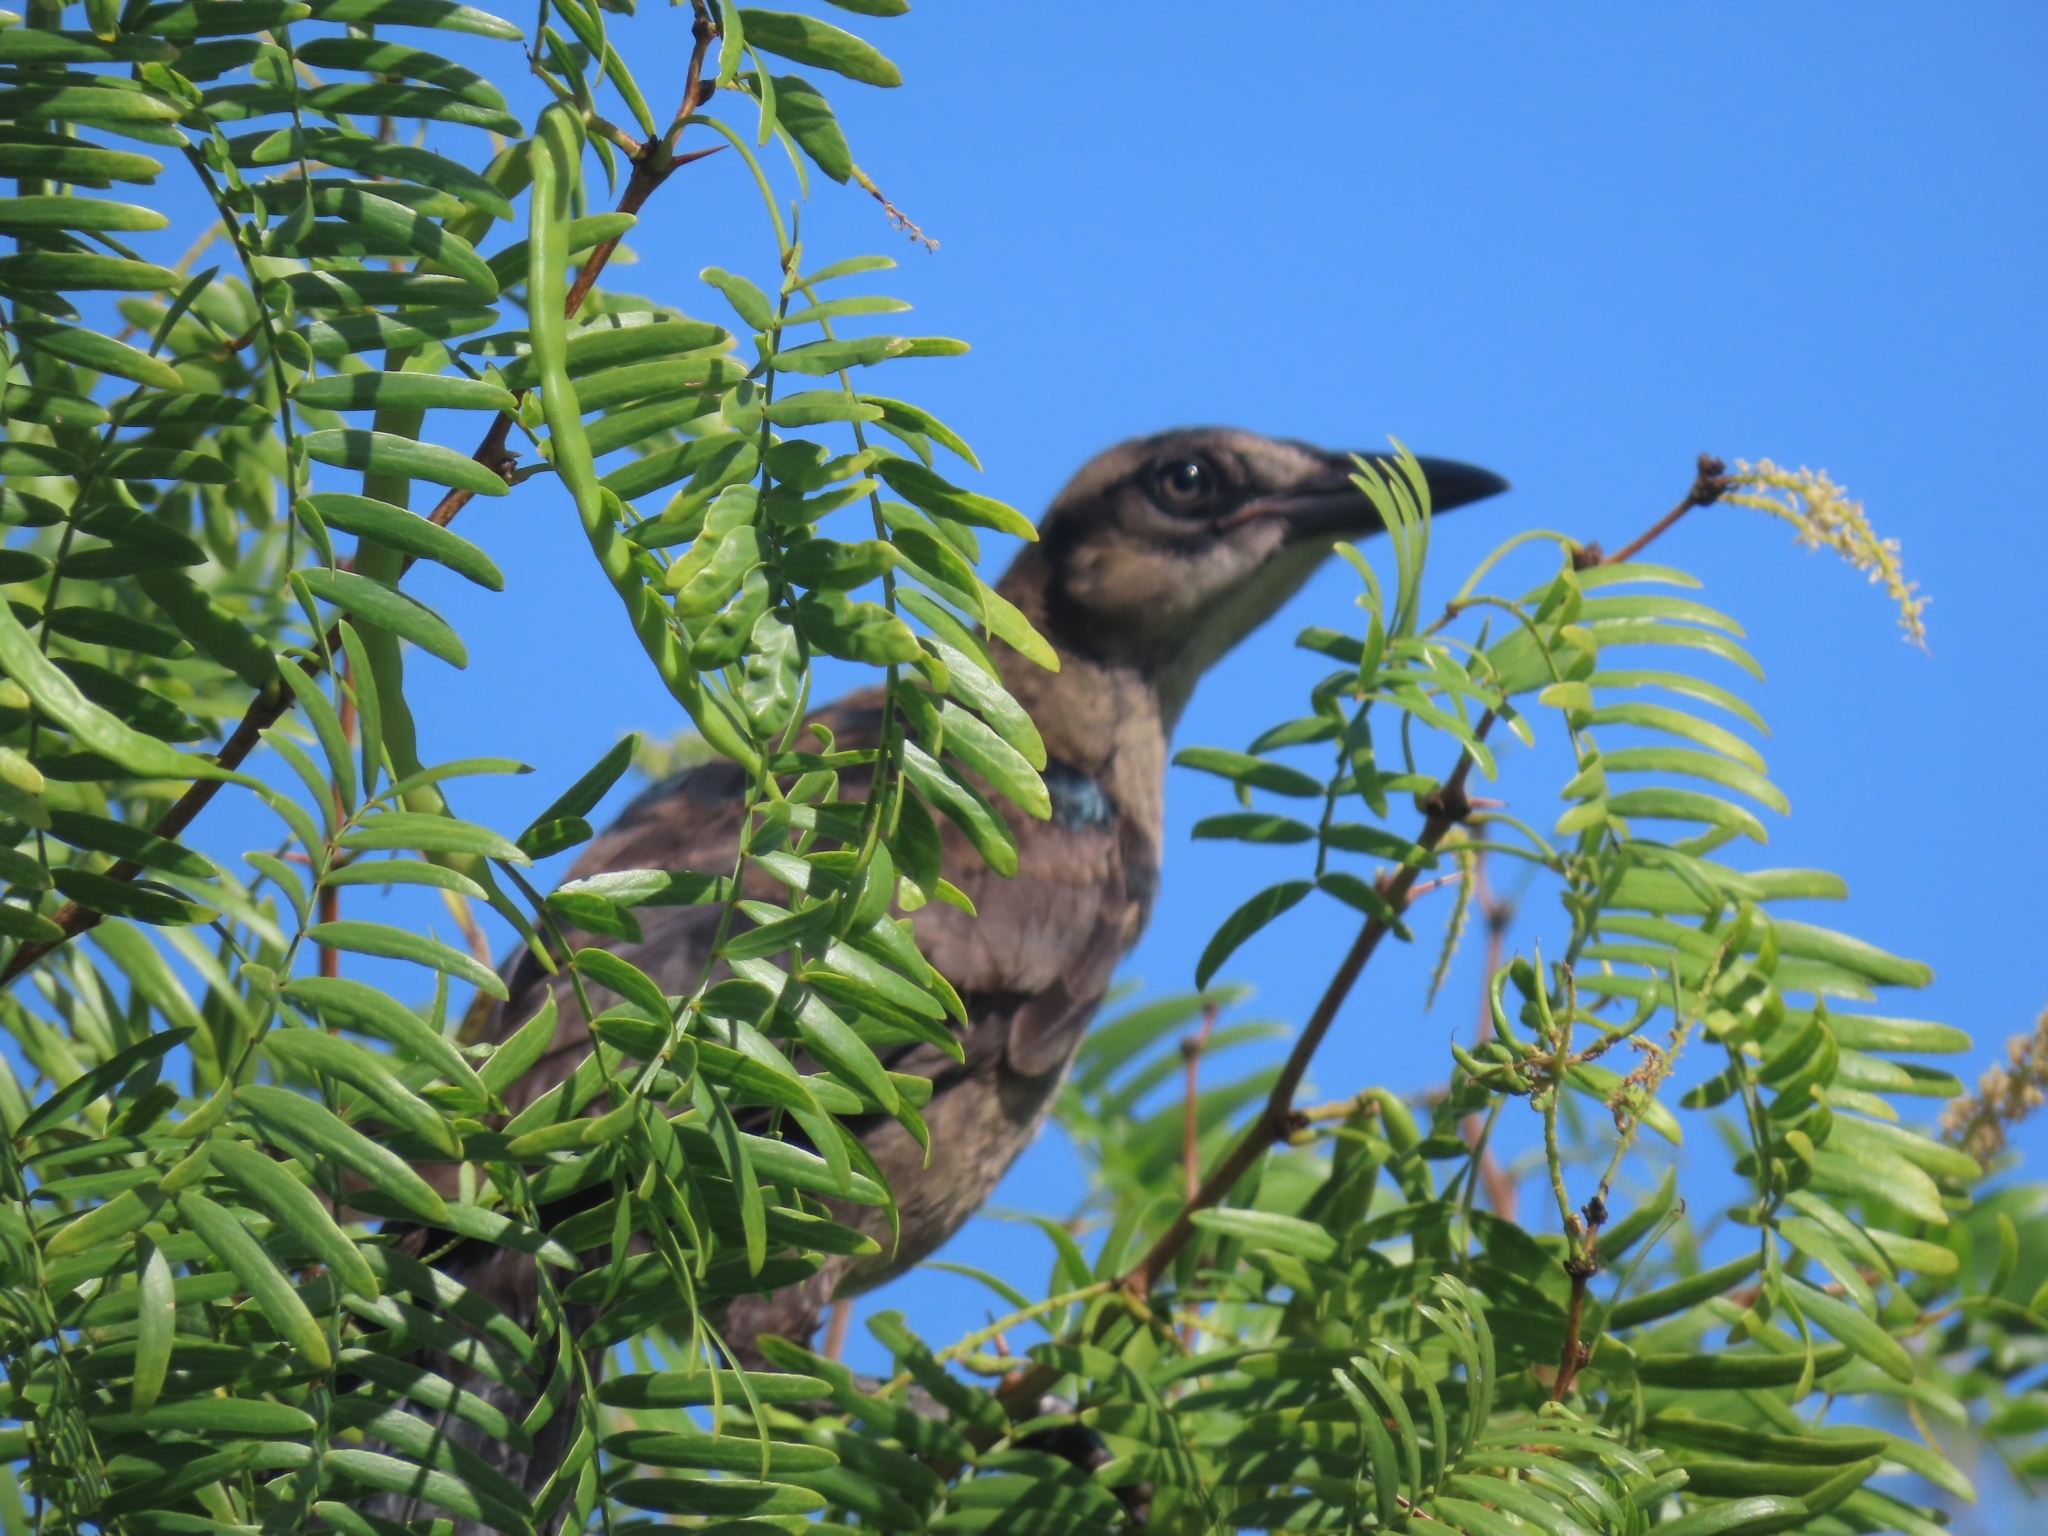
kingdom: Animalia
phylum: Chordata
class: Aves
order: Passeriformes
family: Icteridae
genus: Quiscalus
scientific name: Quiscalus mexicanus
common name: Great-tailed grackle
